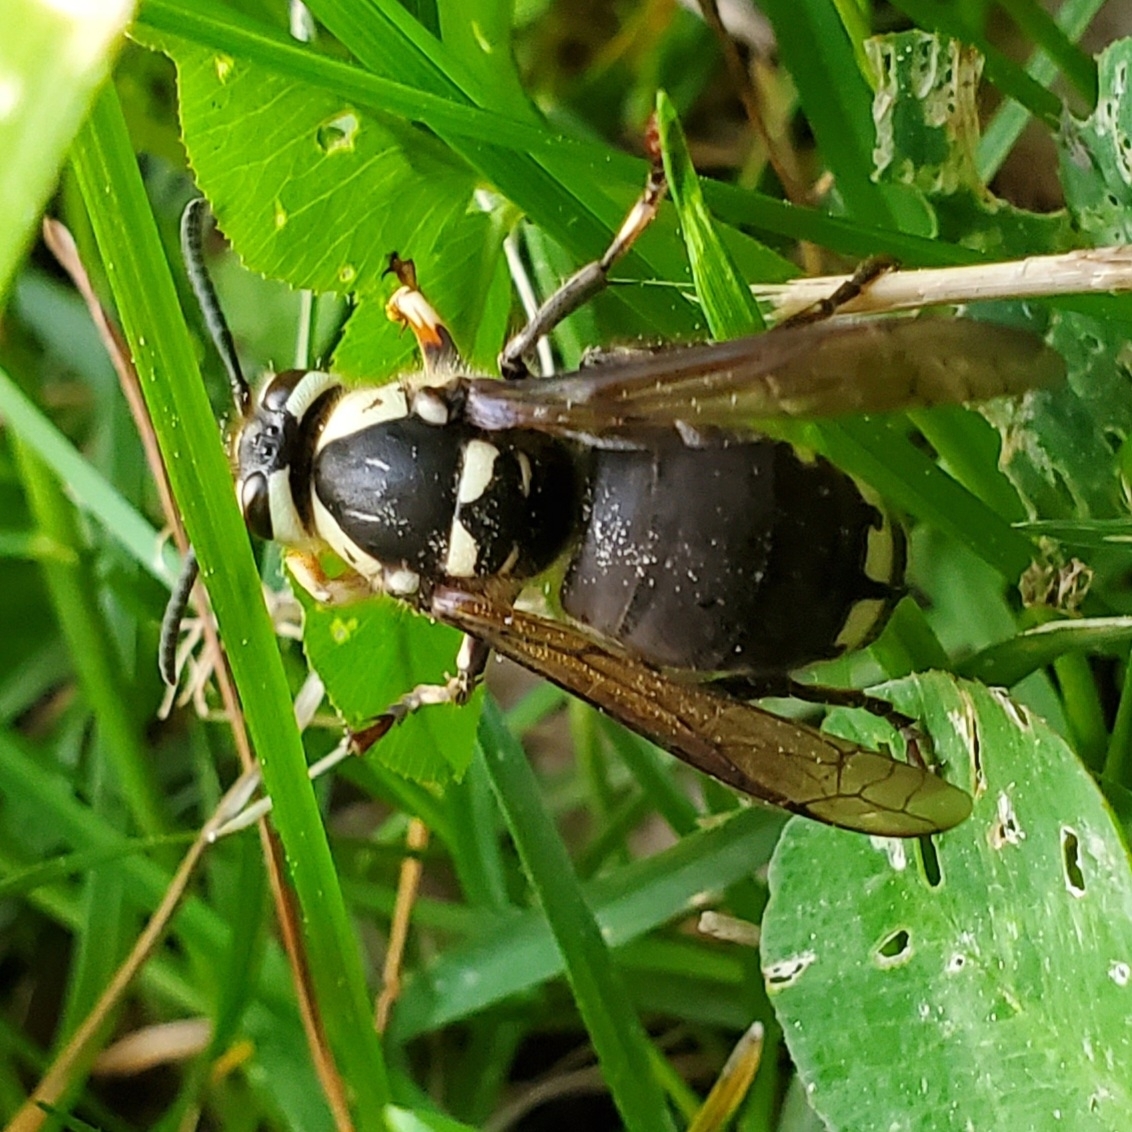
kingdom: Animalia
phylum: Arthropoda
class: Insecta
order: Hymenoptera
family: Vespidae
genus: Dolichovespula
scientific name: Dolichovespula maculata
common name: Bald-faced hornet
